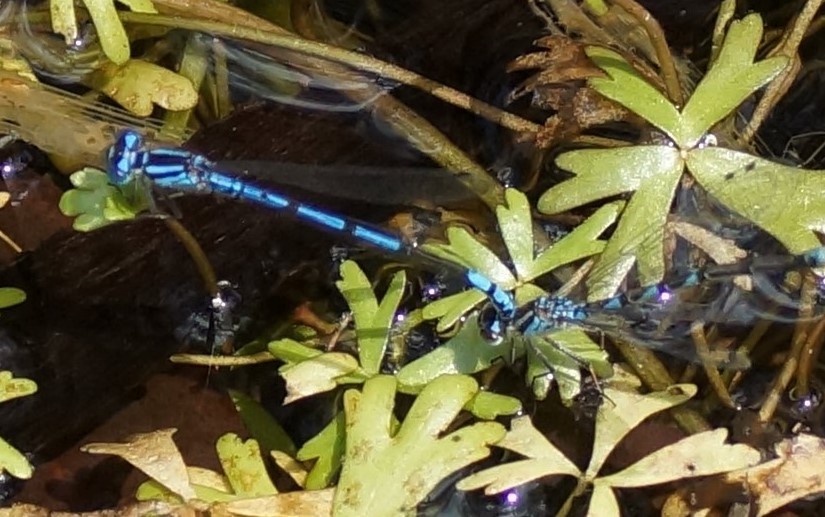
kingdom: Animalia
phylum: Arthropoda
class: Insecta
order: Odonata
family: Coenagrionidae
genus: Austrocoenagrion
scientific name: Austrocoenagrion lyelli
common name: Swamp bluet
